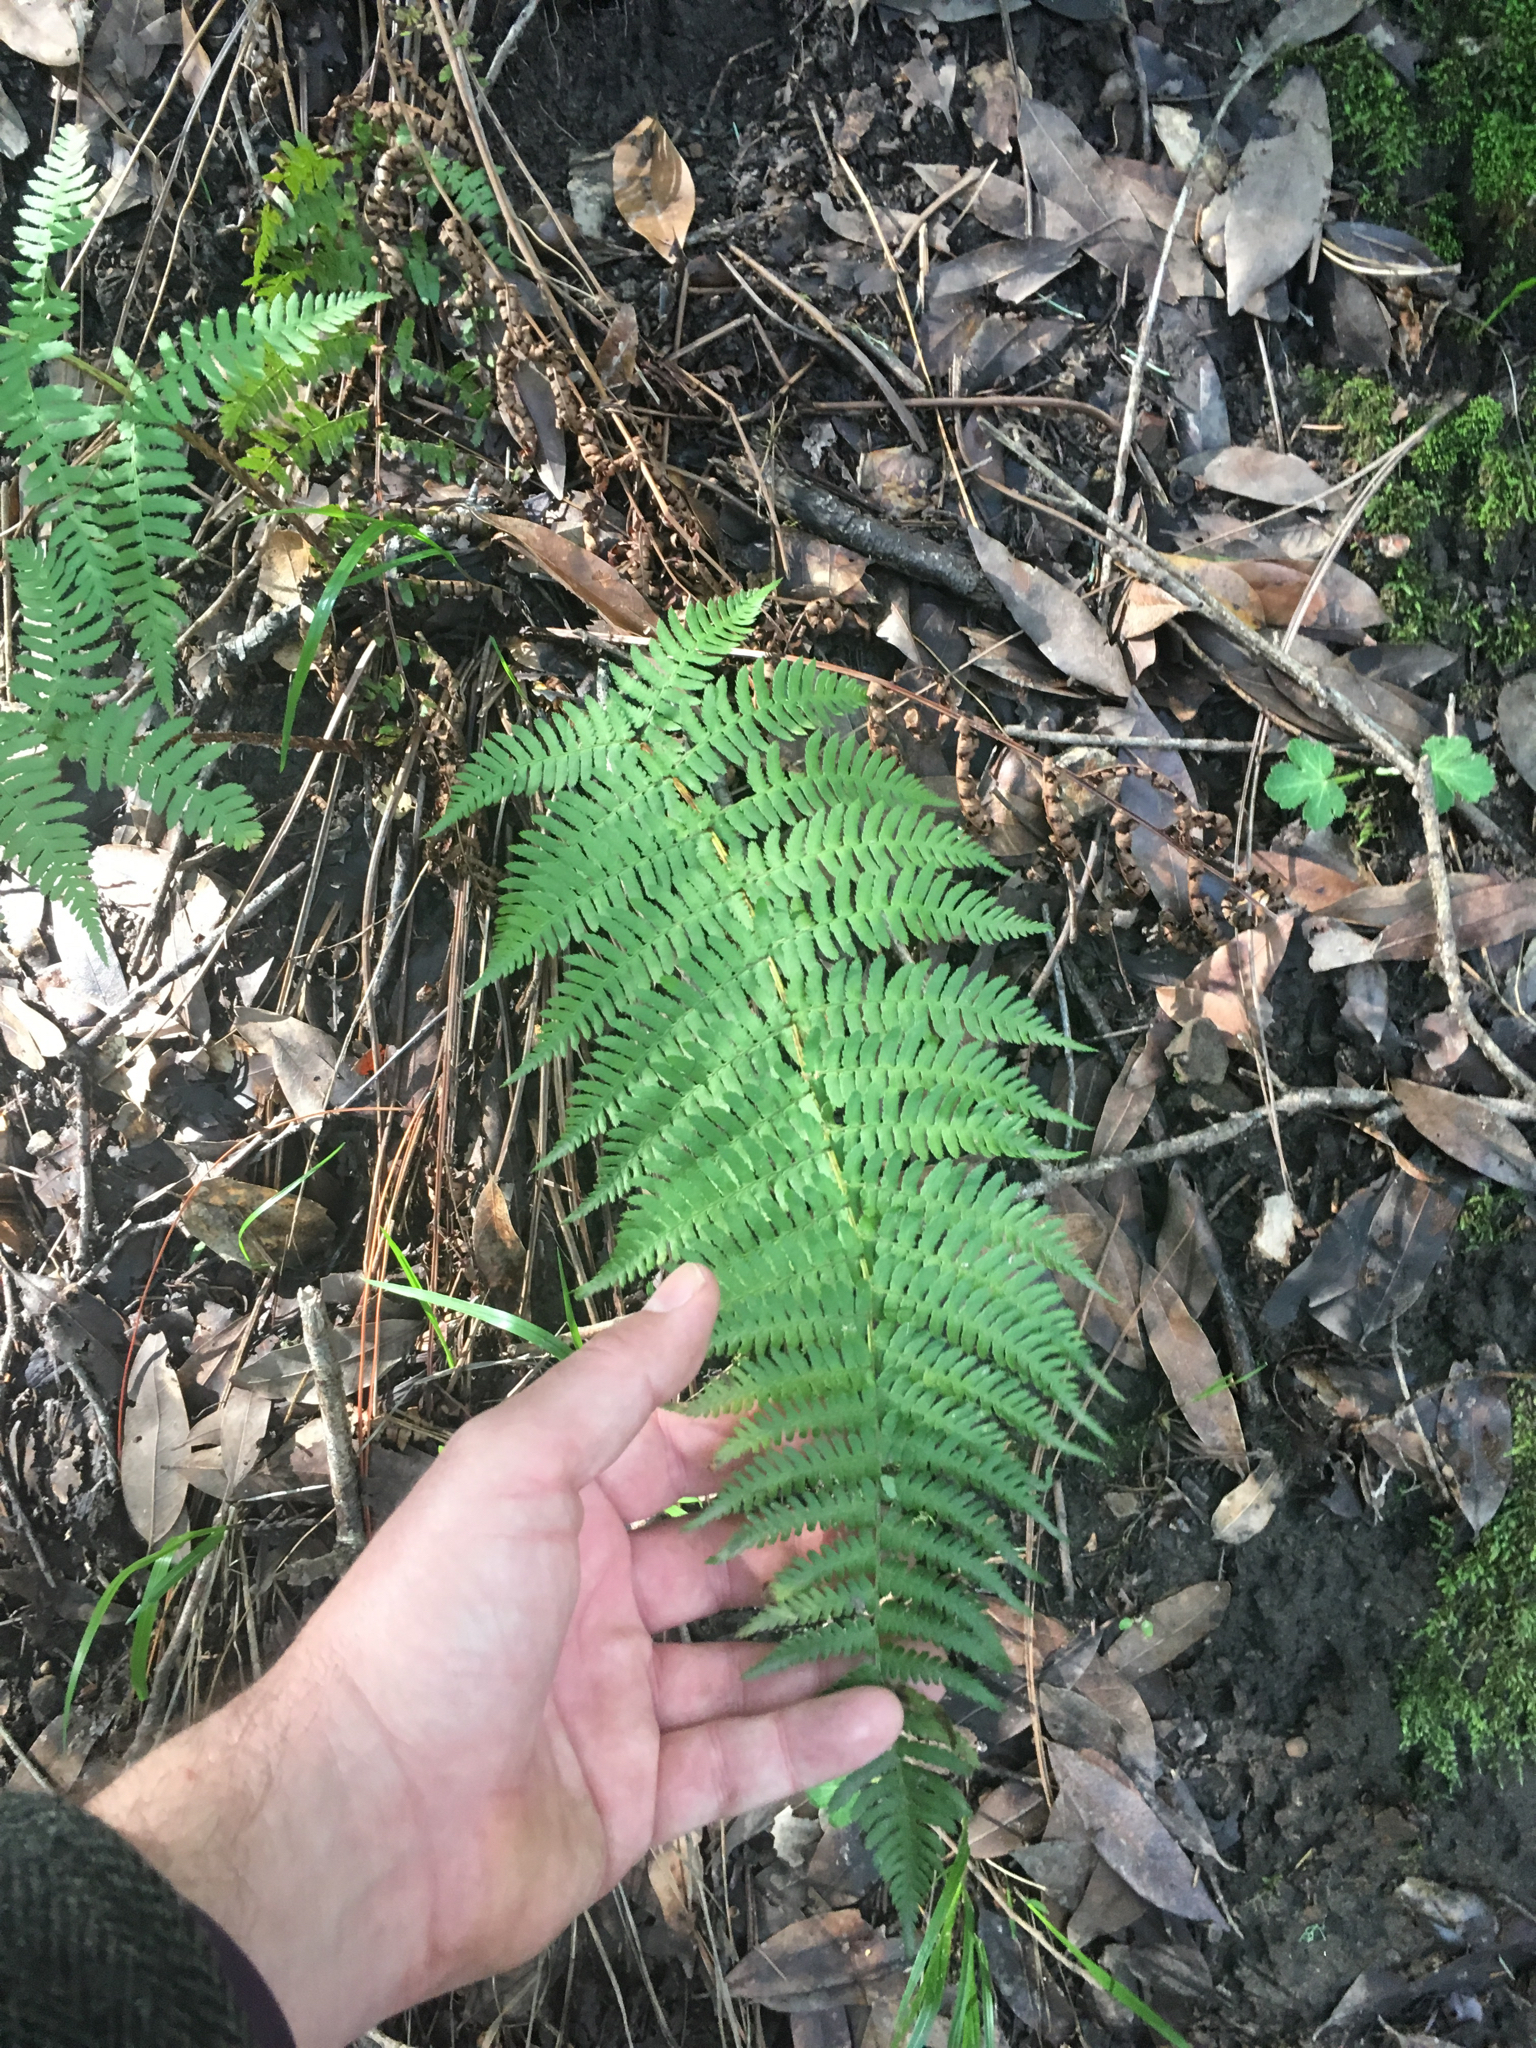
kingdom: Plantae
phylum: Tracheophyta
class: Polypodiopsida
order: Polypodiales
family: Dryopteridaceae
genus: Dryopteris
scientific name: Dryopteris arguta
